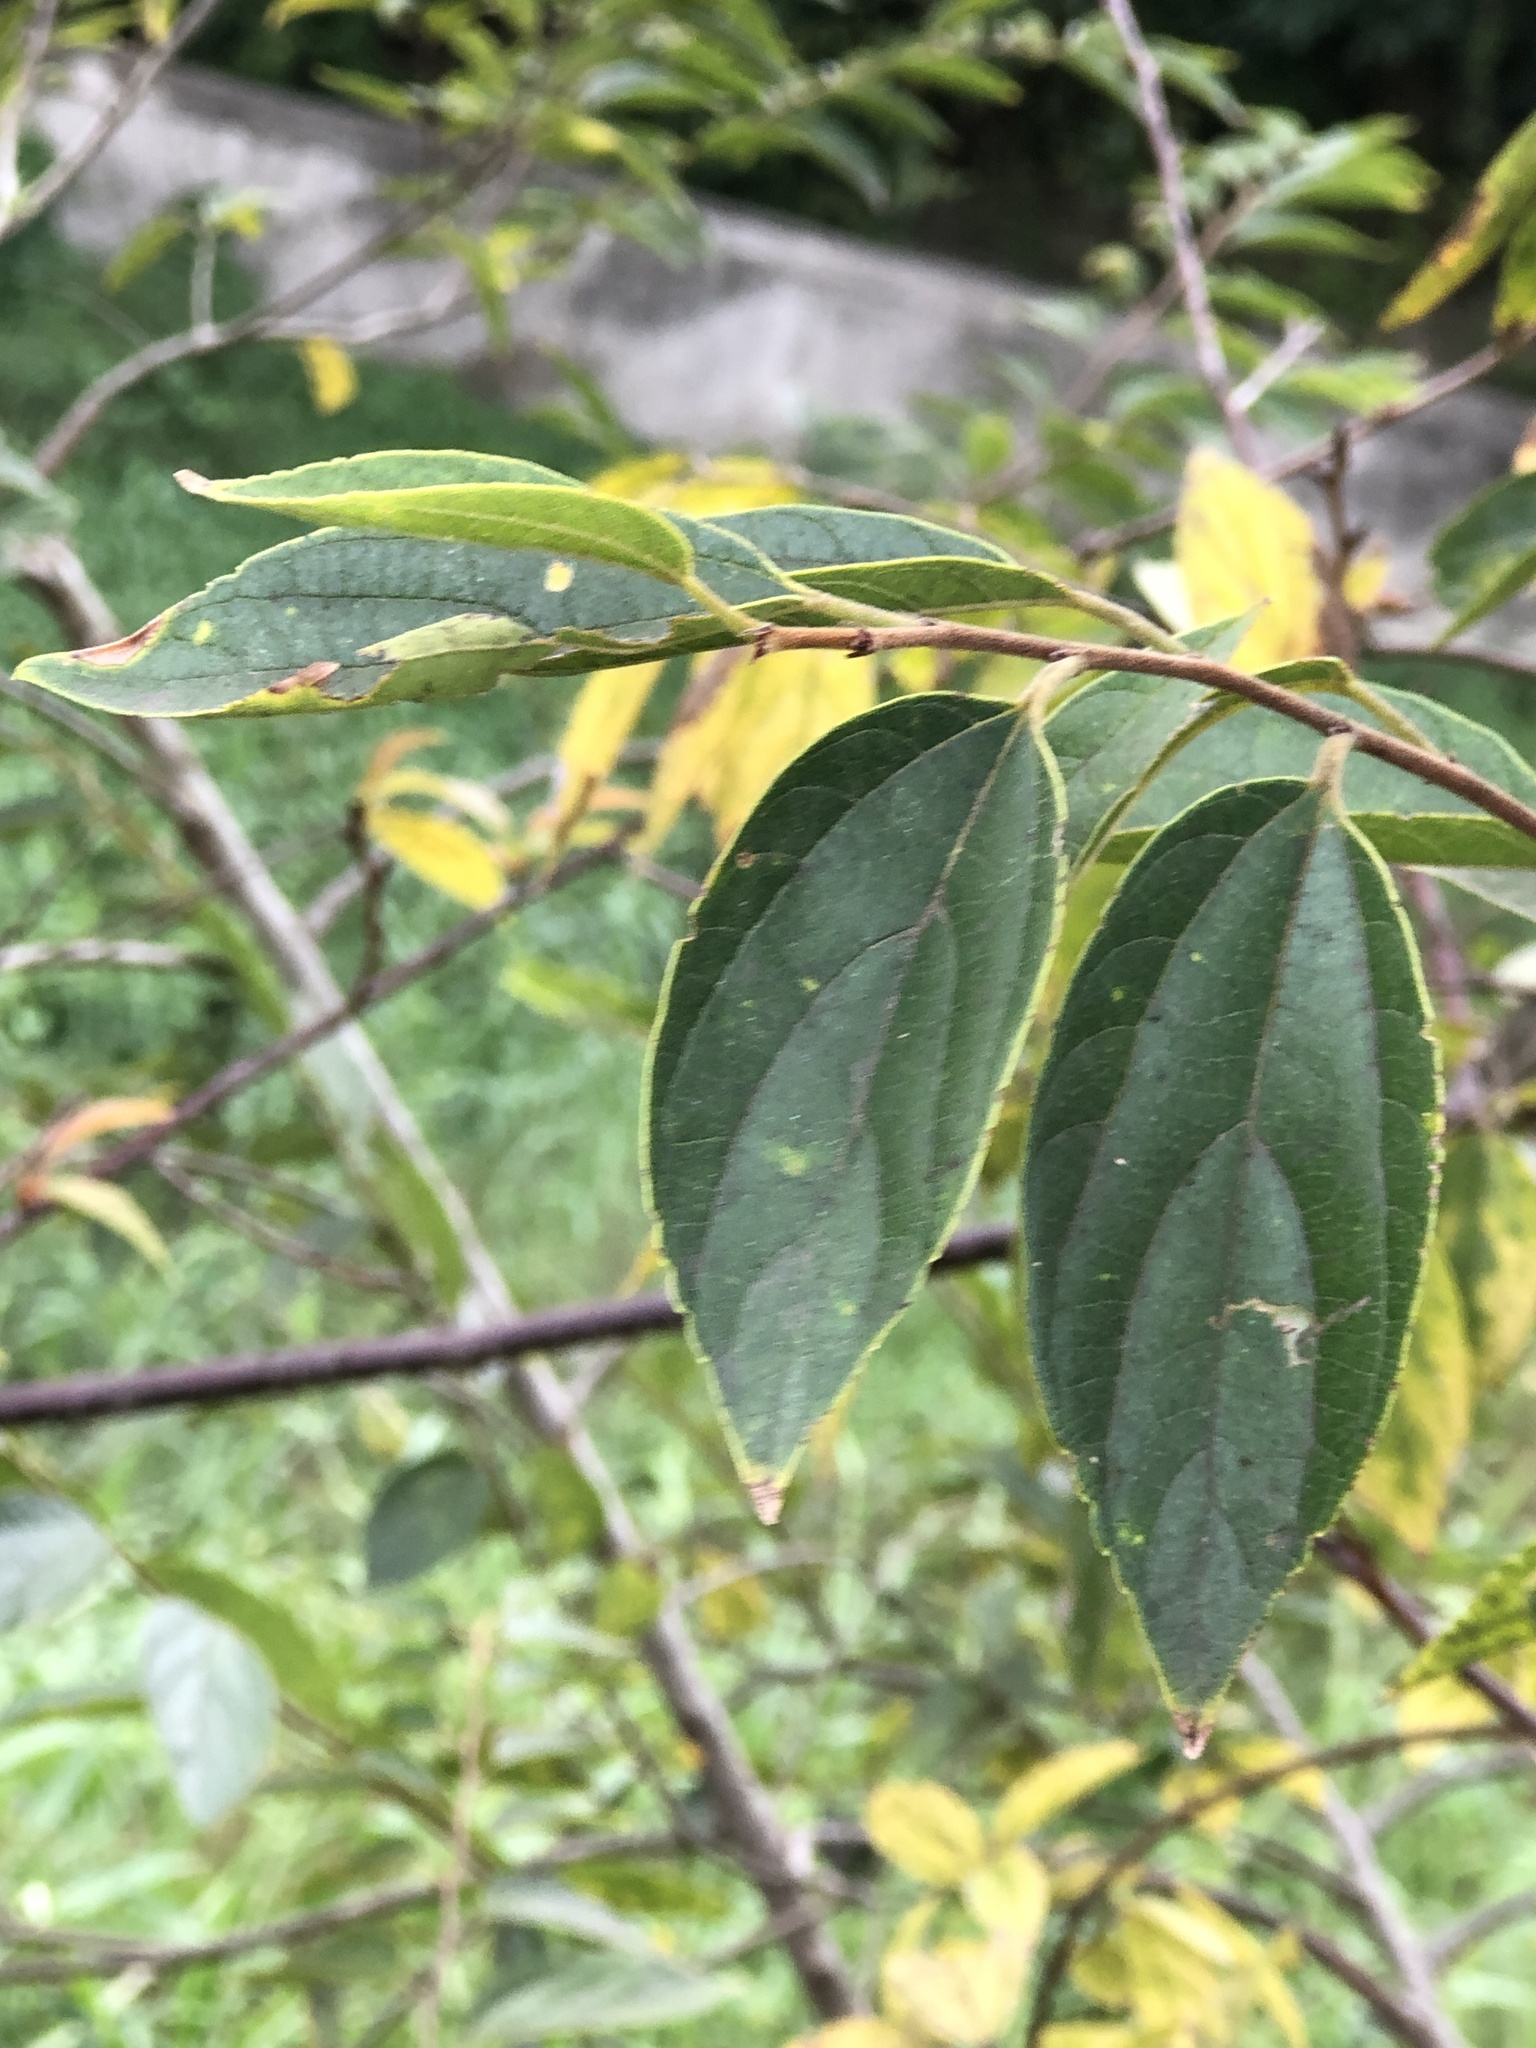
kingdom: Plantae
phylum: Tracheophyta
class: Magnoliopsida
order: Rosales
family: Cannabaceae
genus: Celtis
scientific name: Celtis sinensis
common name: Chinese hackberry
